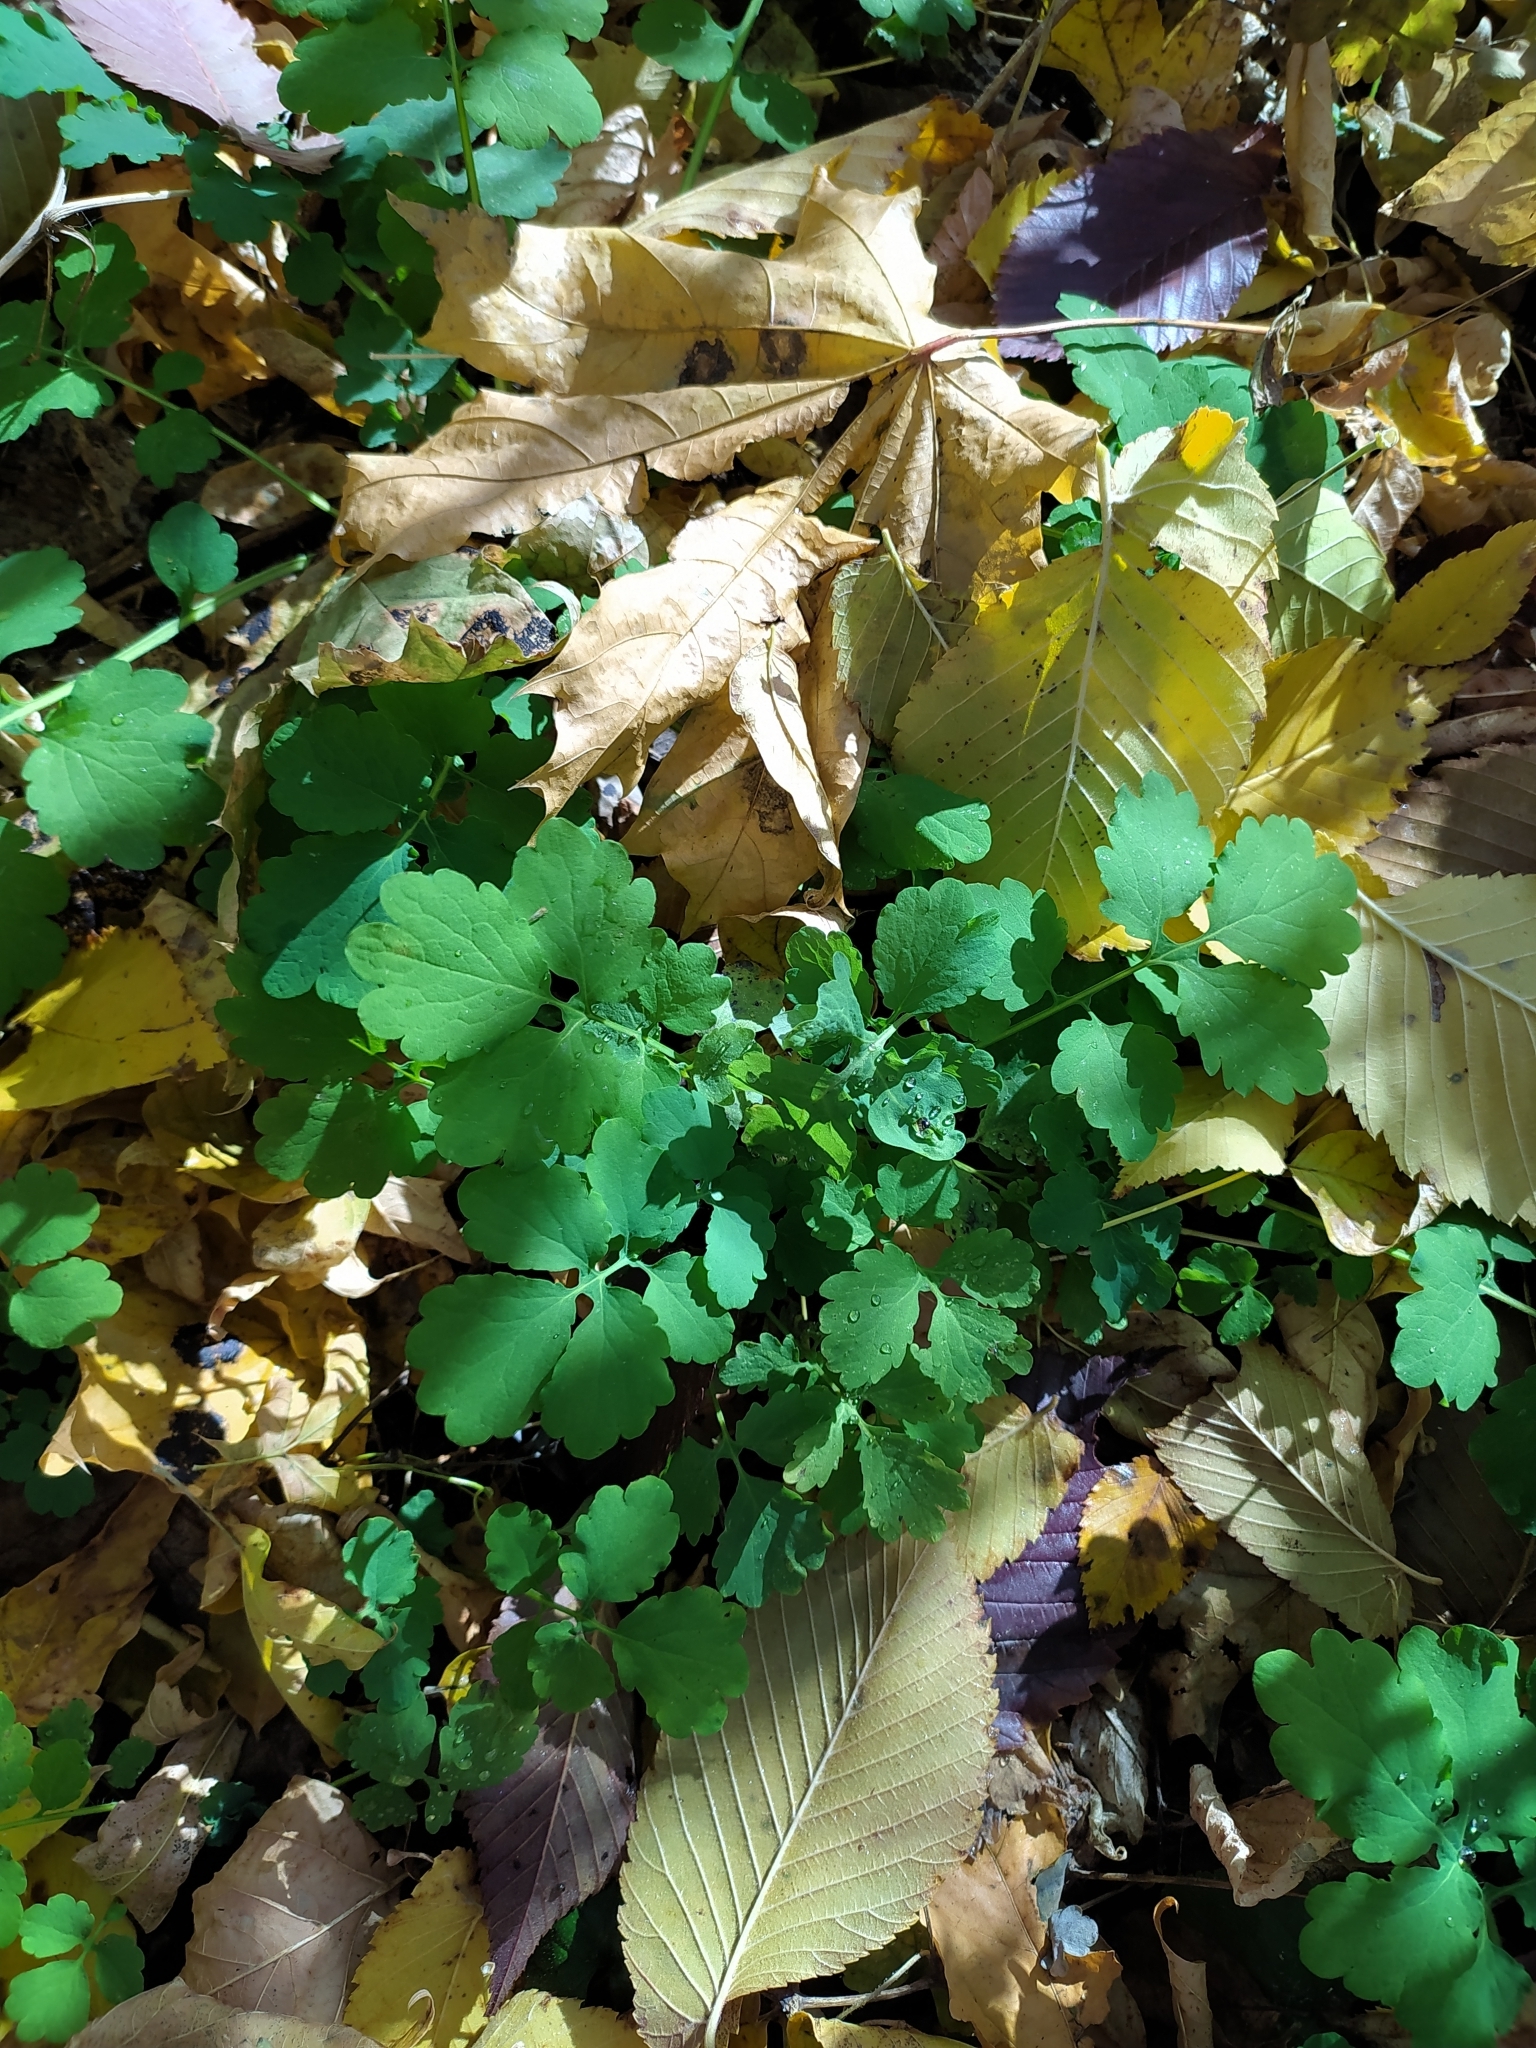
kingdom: Plantae
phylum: Tracheophyta
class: Magnoliopsida
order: Ranunculales
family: Papaveraceae
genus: Chelidonium
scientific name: Chelidonium majus
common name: Greater celandine
